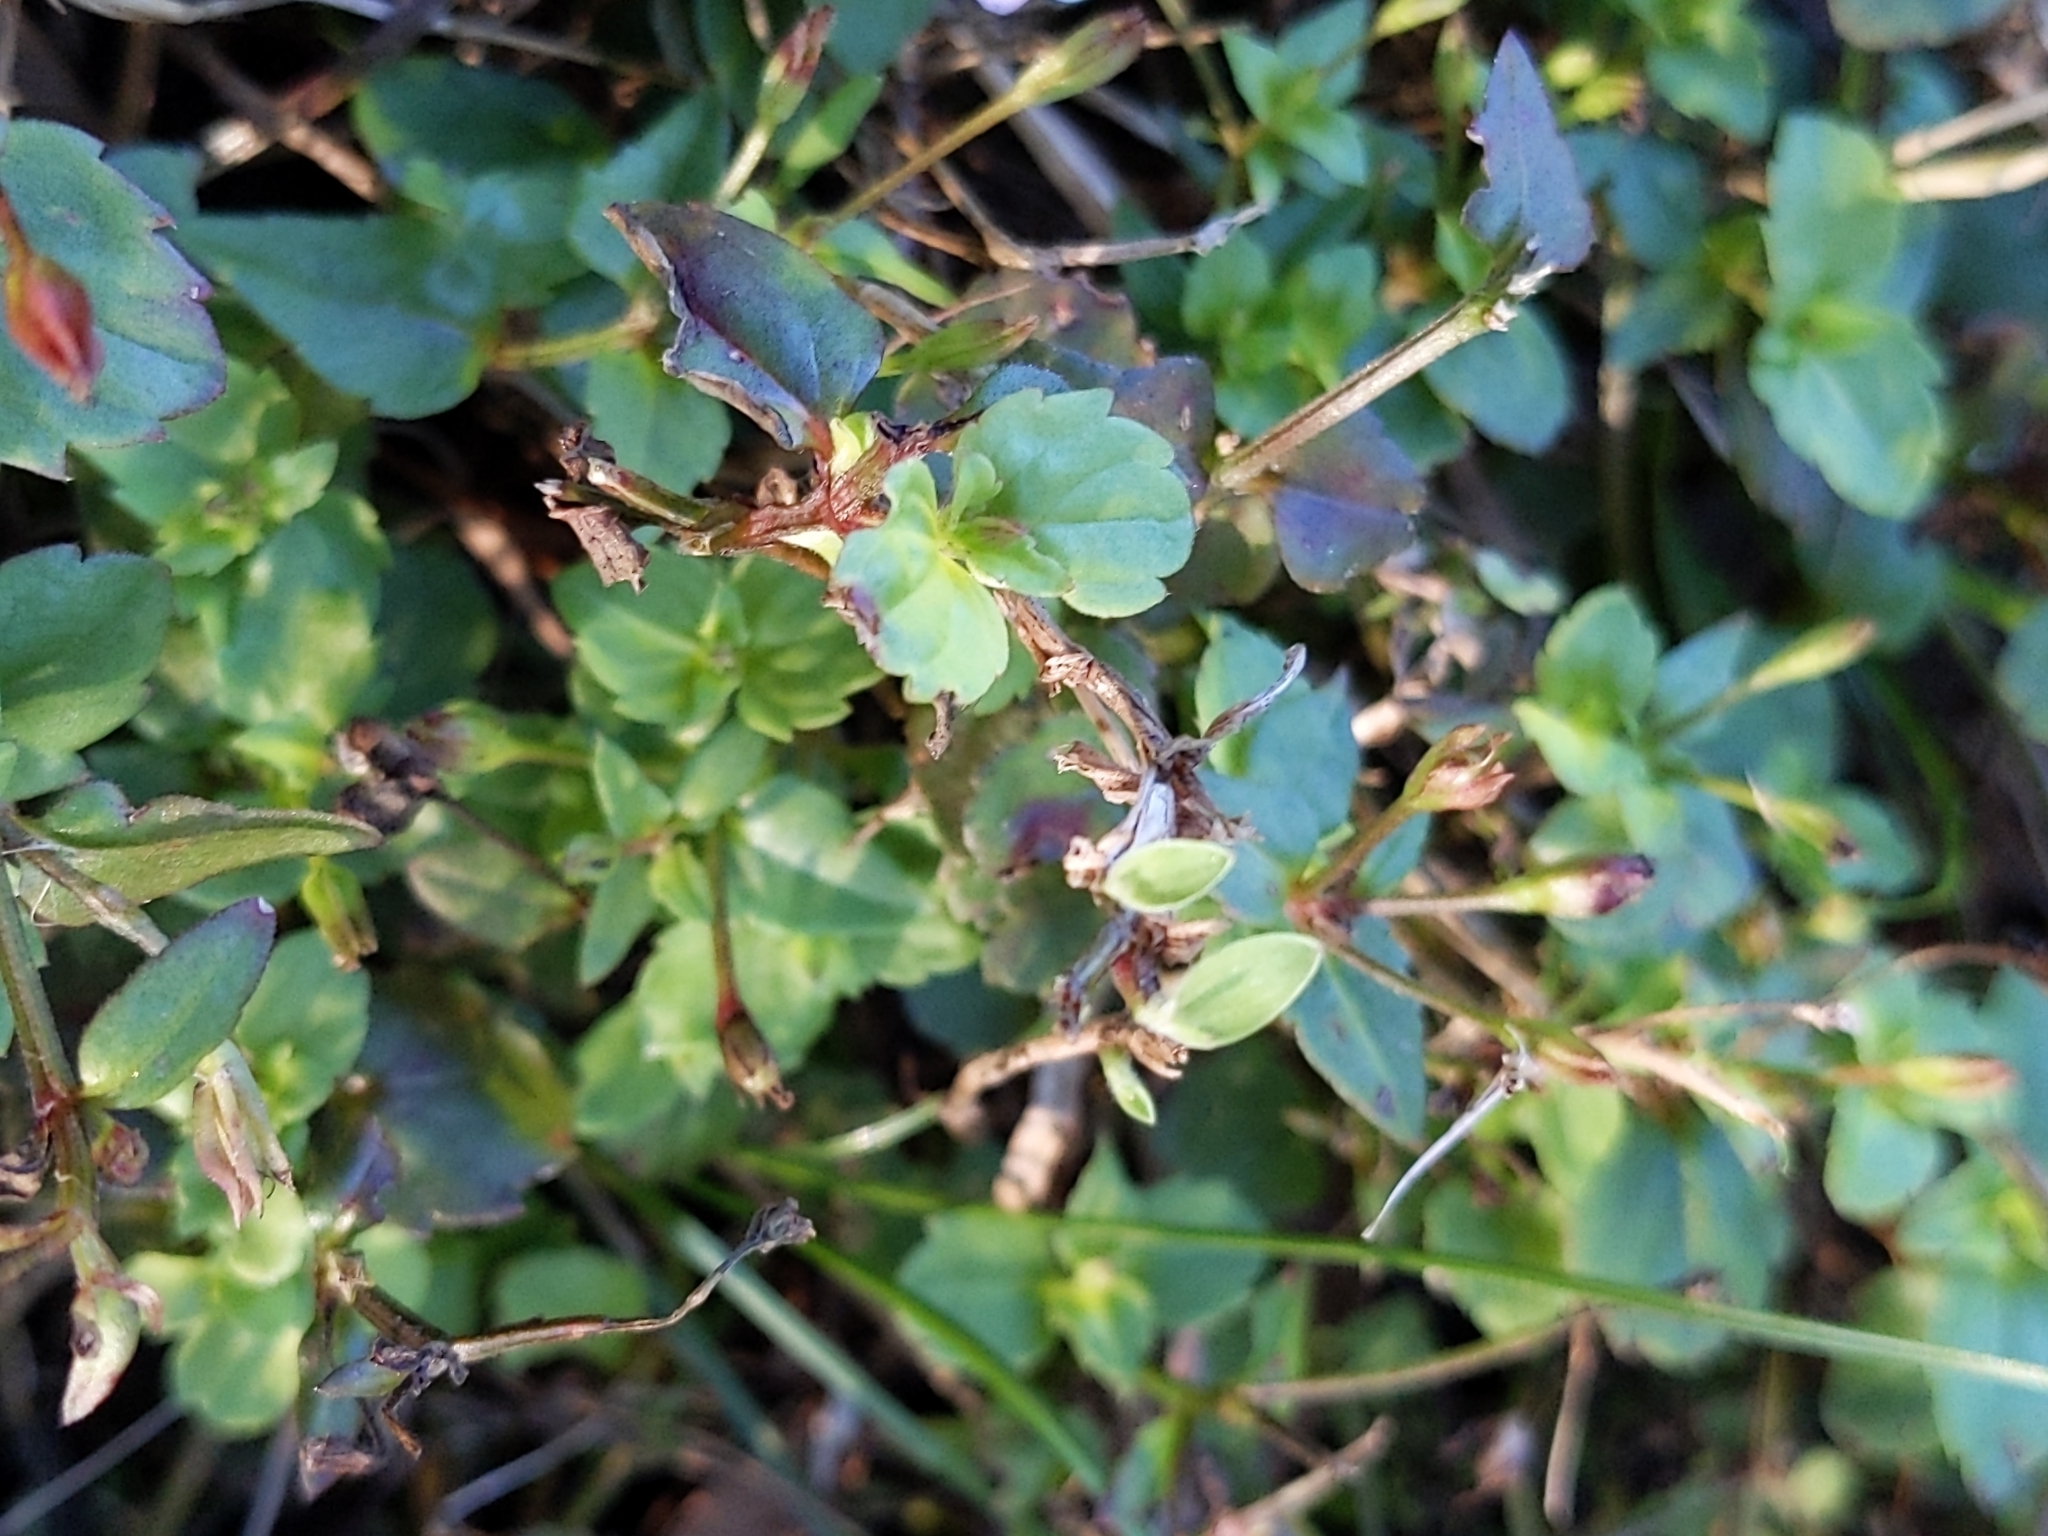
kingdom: Plantae
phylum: Tracheophyta
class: Magnoliopsida
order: Lamiales
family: Linderniaceae
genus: Torenia
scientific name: Torenia crustacea
